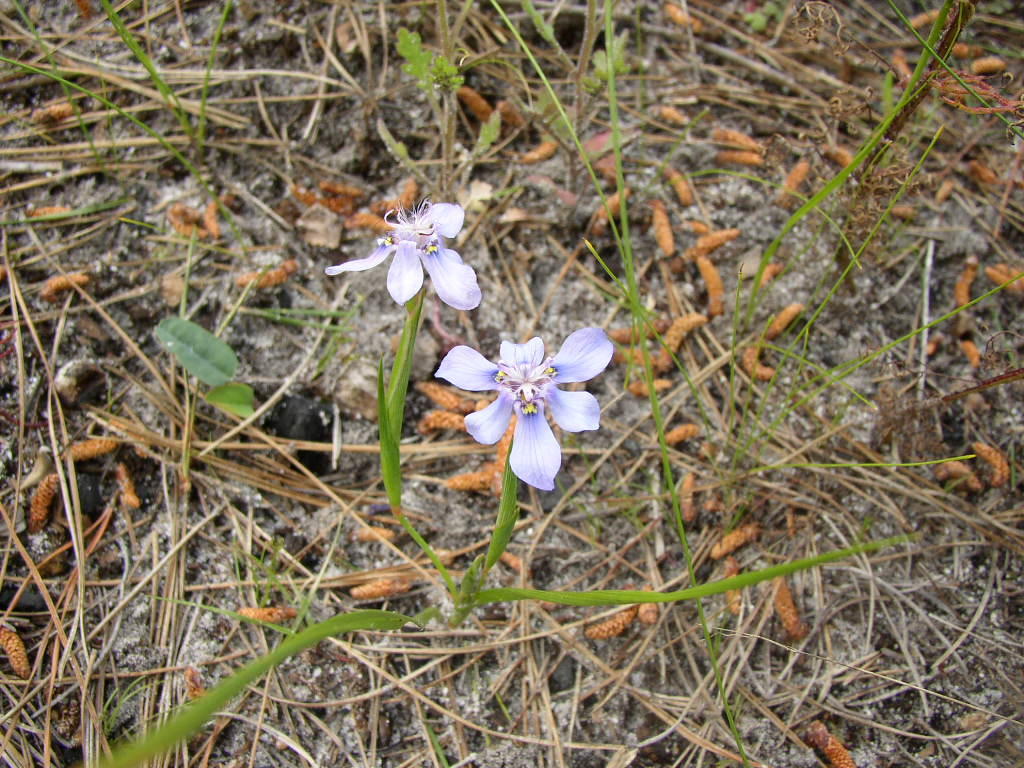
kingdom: Plantae
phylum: Tracheophyta
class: Liliopsida
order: Asparagales
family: Iridaceae
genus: Moraea
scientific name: Moraea lugubris
